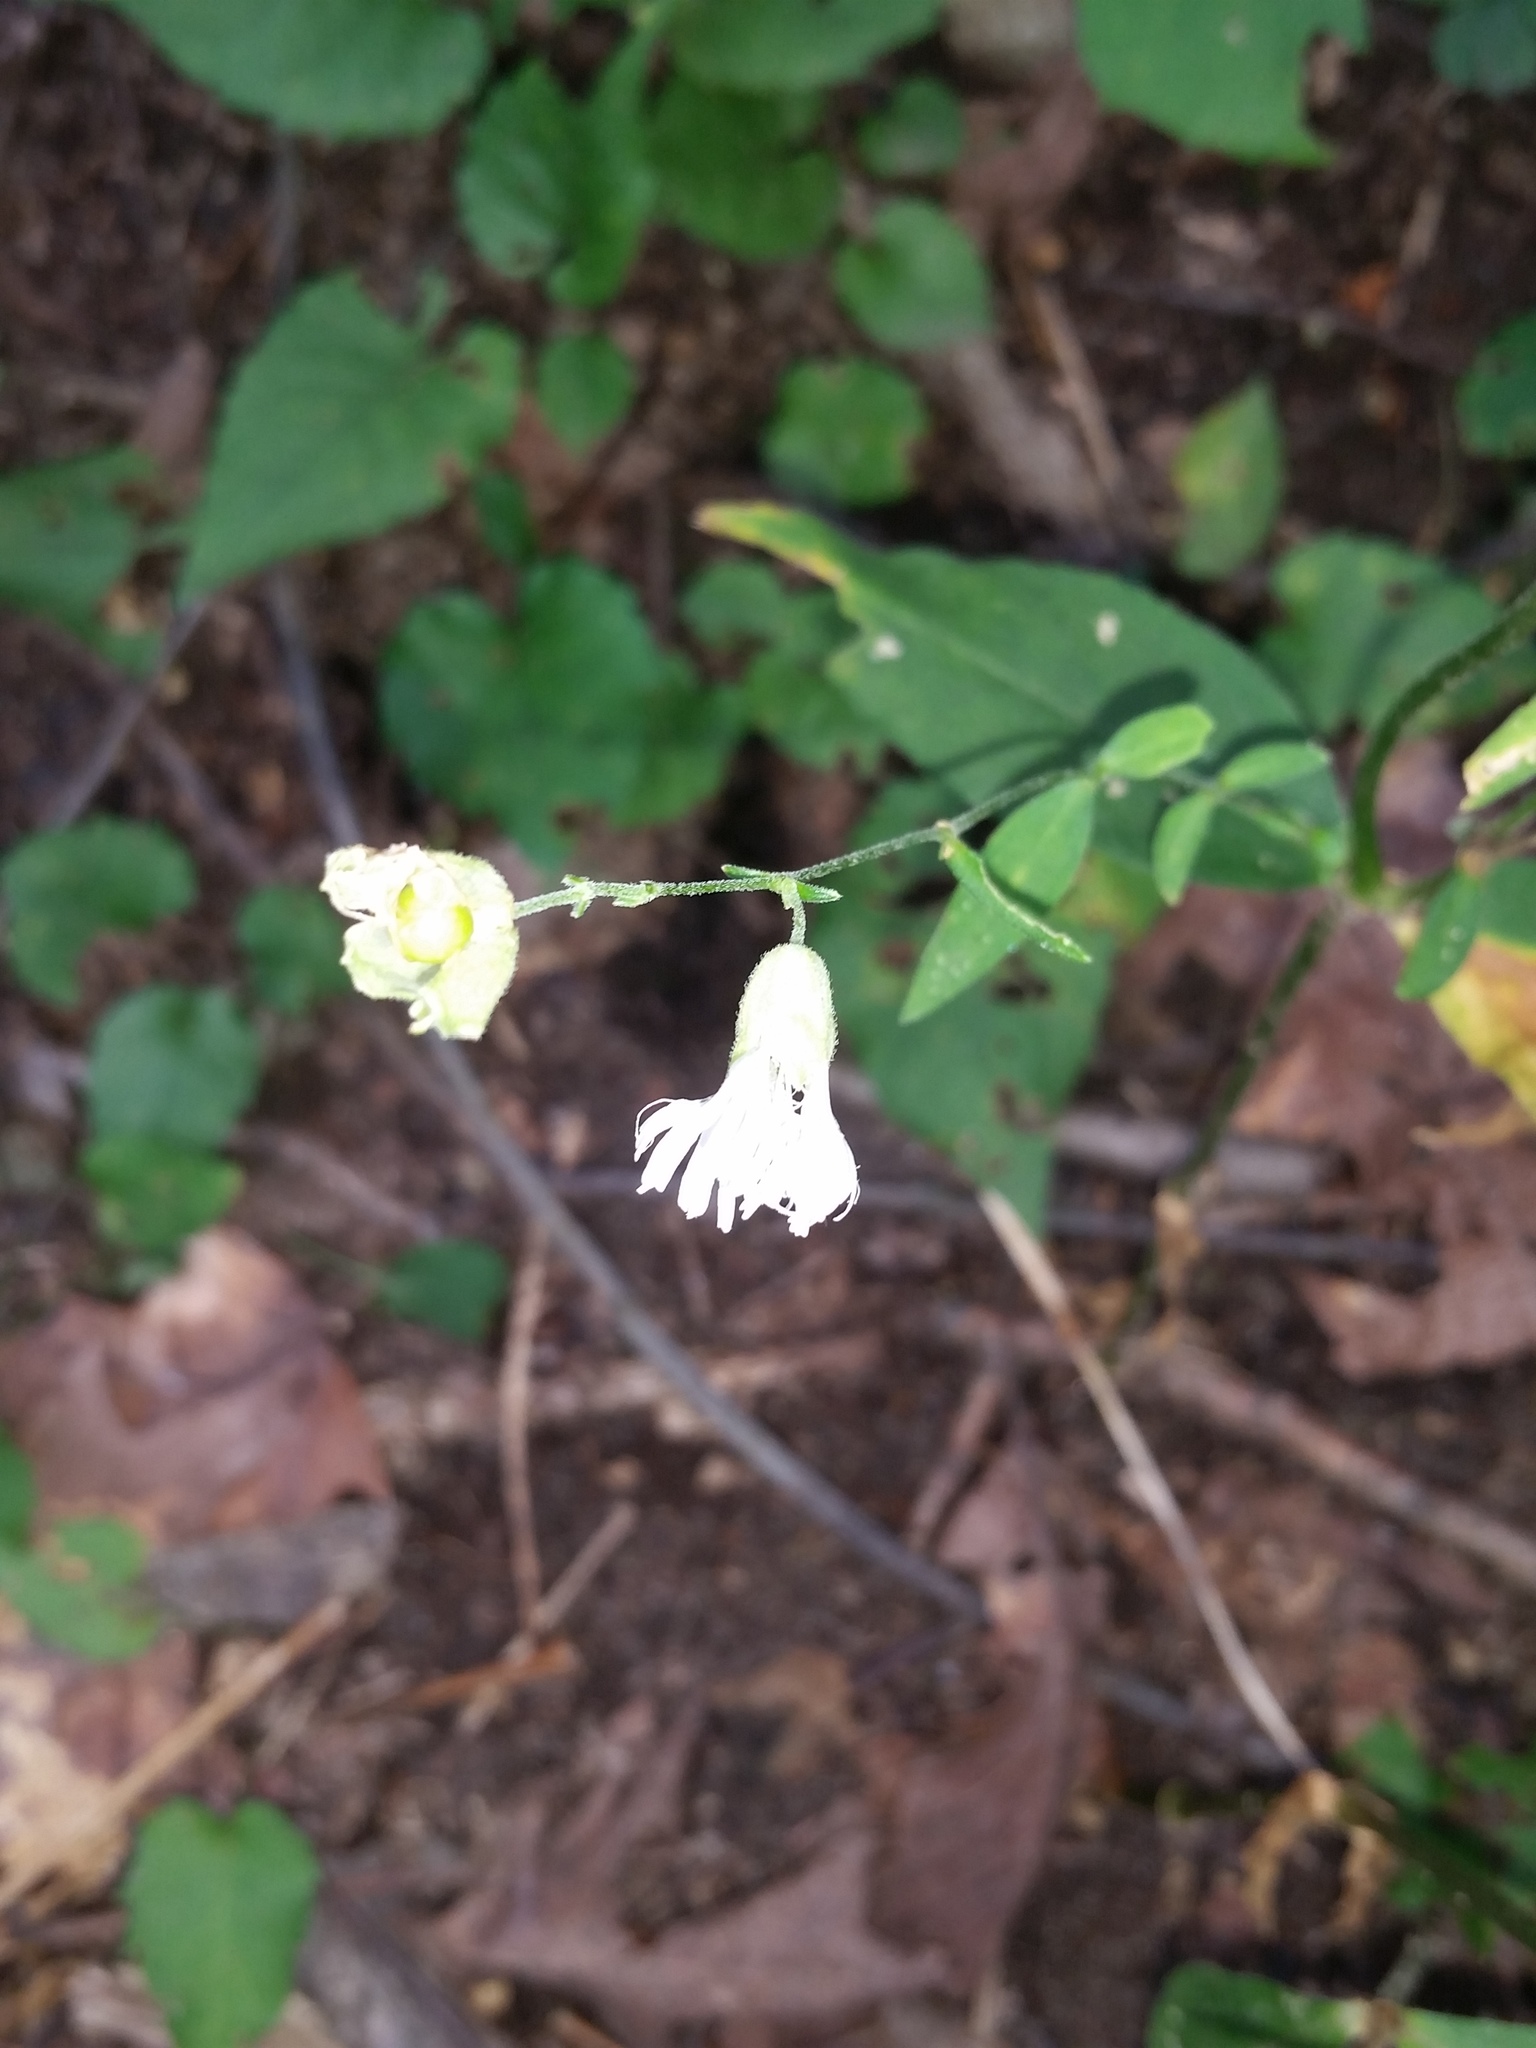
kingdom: Plantae
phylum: Tracheophyta
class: Magnoliopsida
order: Caryophyllales
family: Caryophyllaceae
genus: Silene
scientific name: Silene stellata
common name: Starry campion
